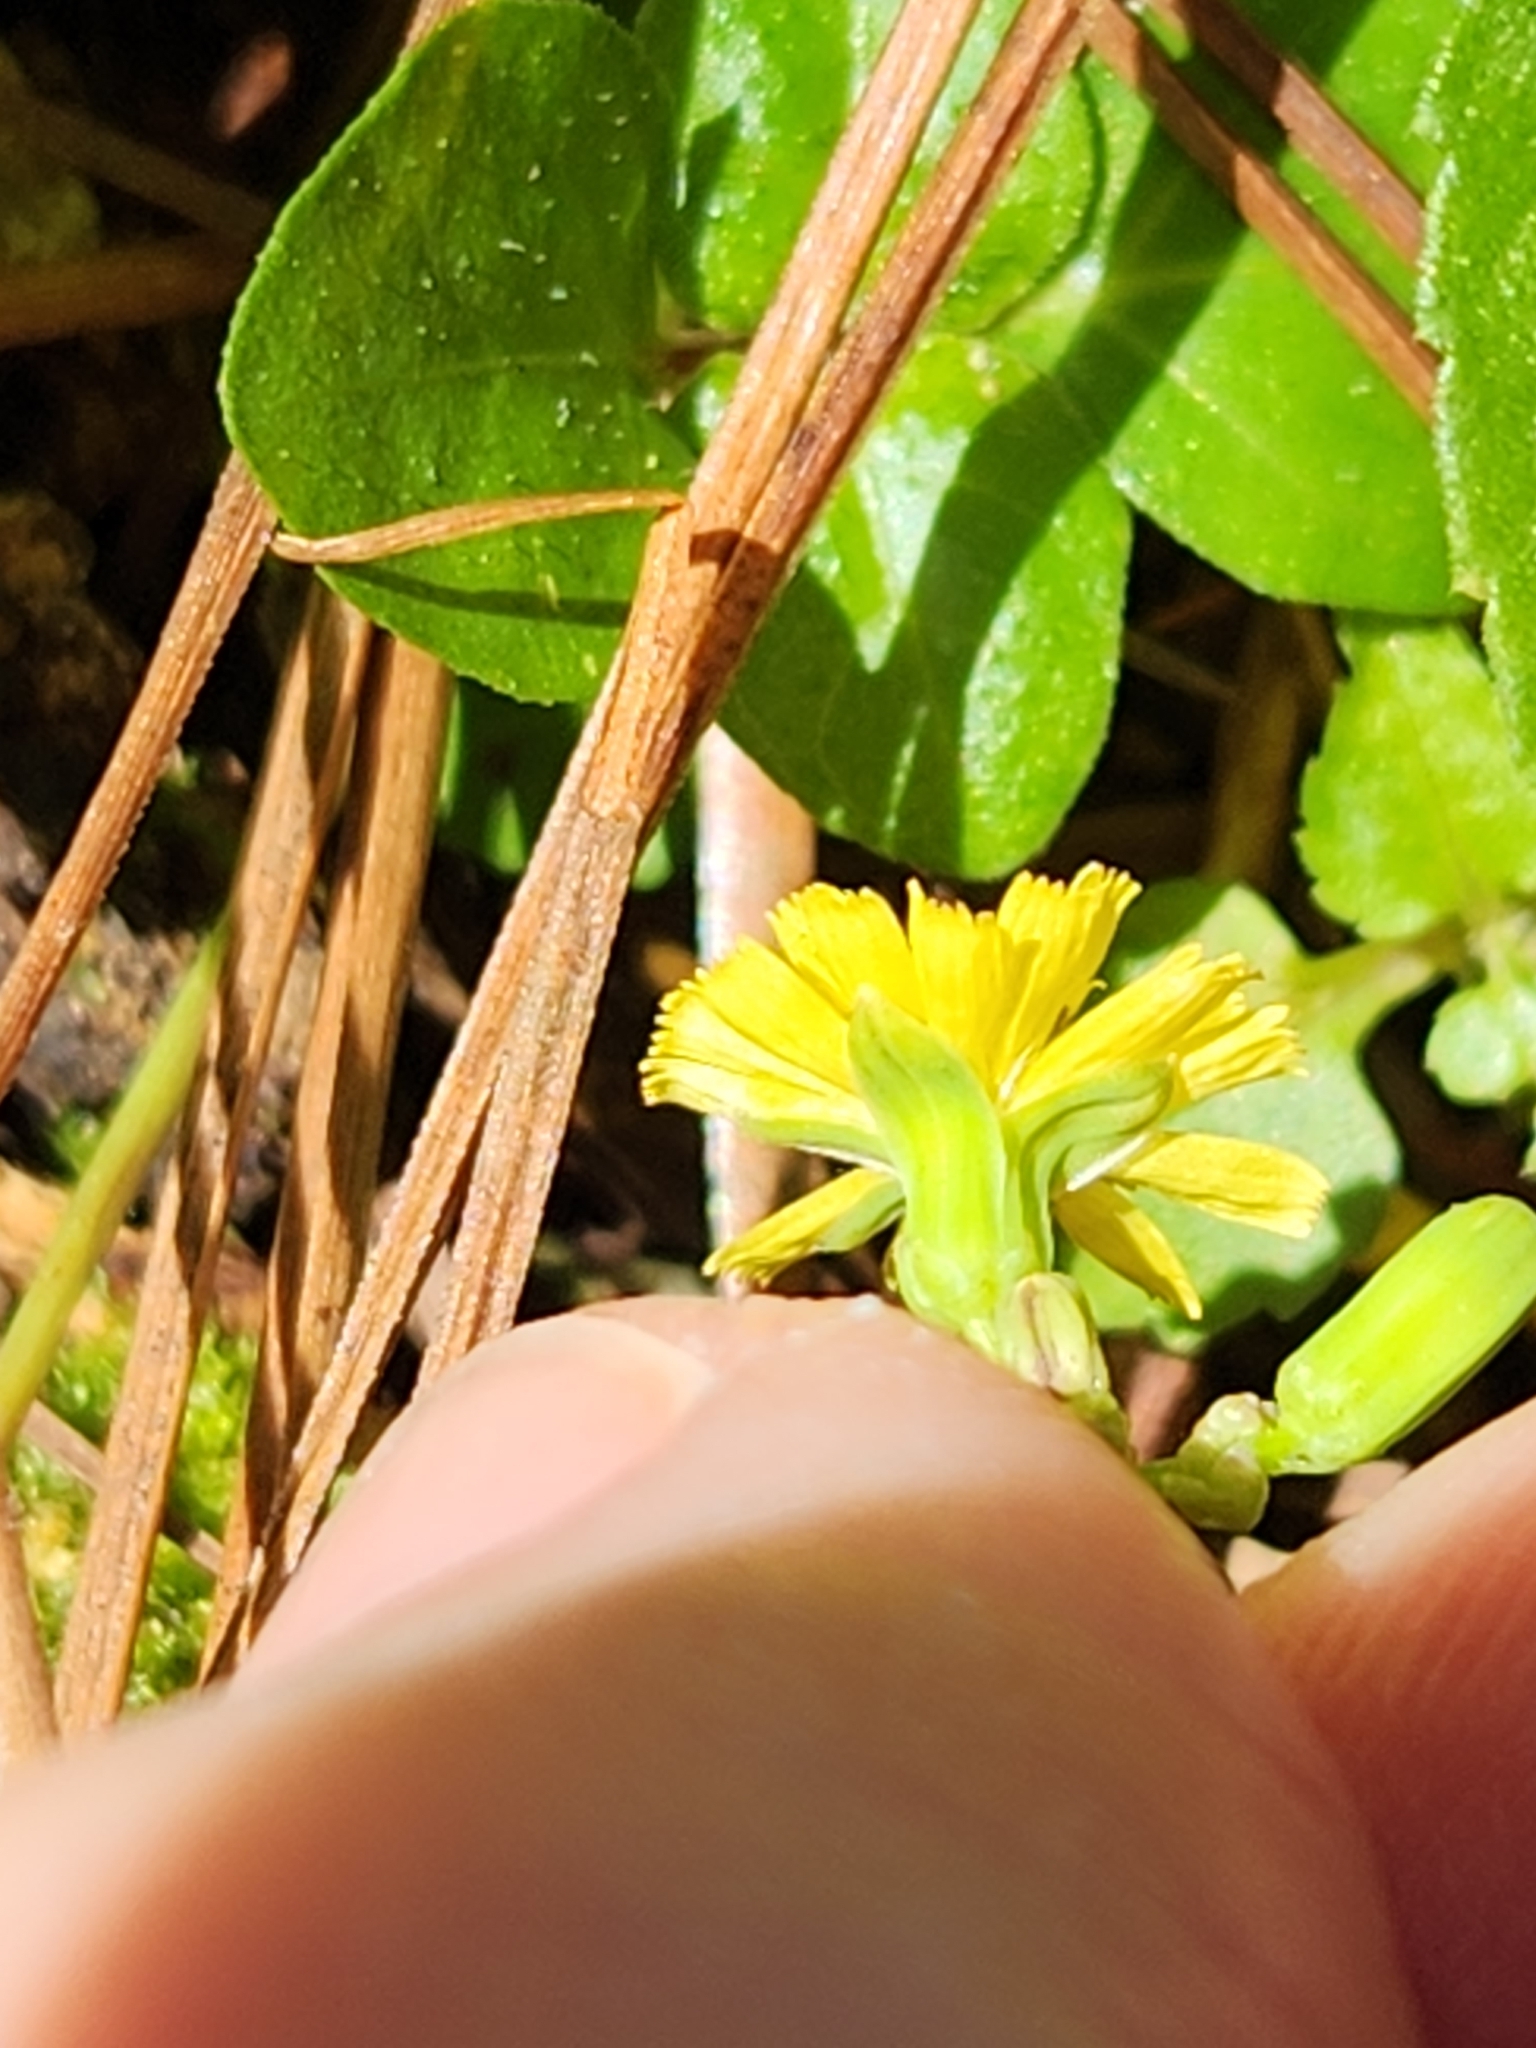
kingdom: Plantae
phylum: Tracheophyta
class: Magnoliopsida
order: Asterales
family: Asteraceae
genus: Youngia
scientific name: Youngia japonica
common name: Oriental false hawksbeard
